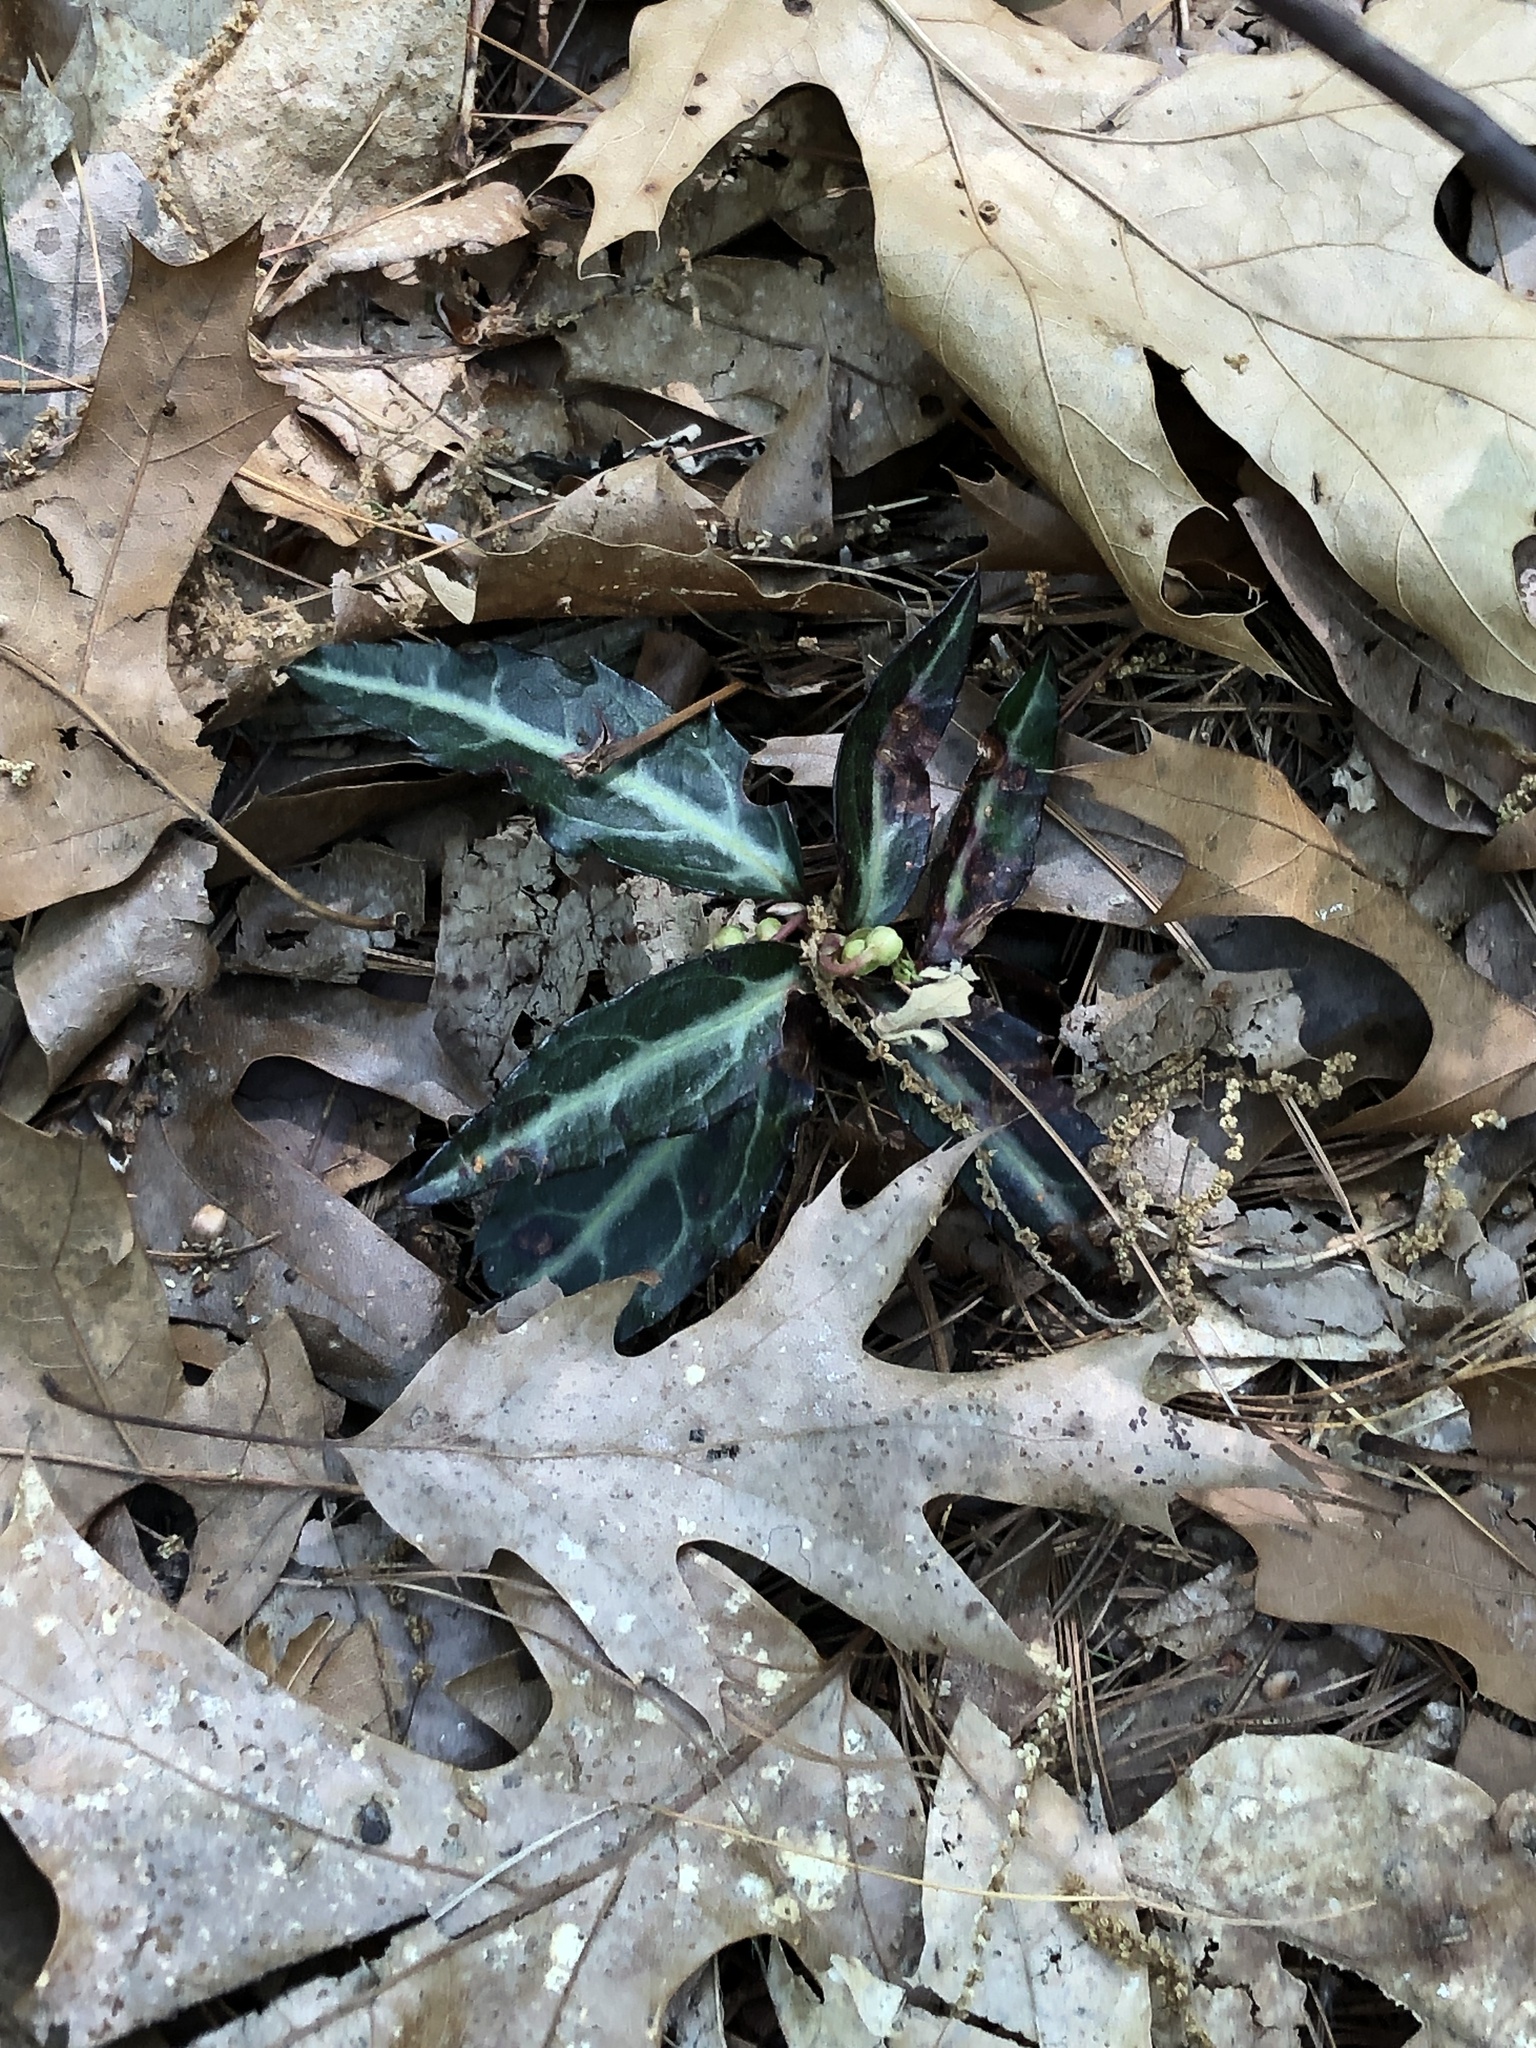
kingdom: Plantae
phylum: Tracheophyta
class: Magnoliopsida
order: Ericales
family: Ericaceae
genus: Chimaphila
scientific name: Chimaphila maculata
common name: Spotted pipsissewa
